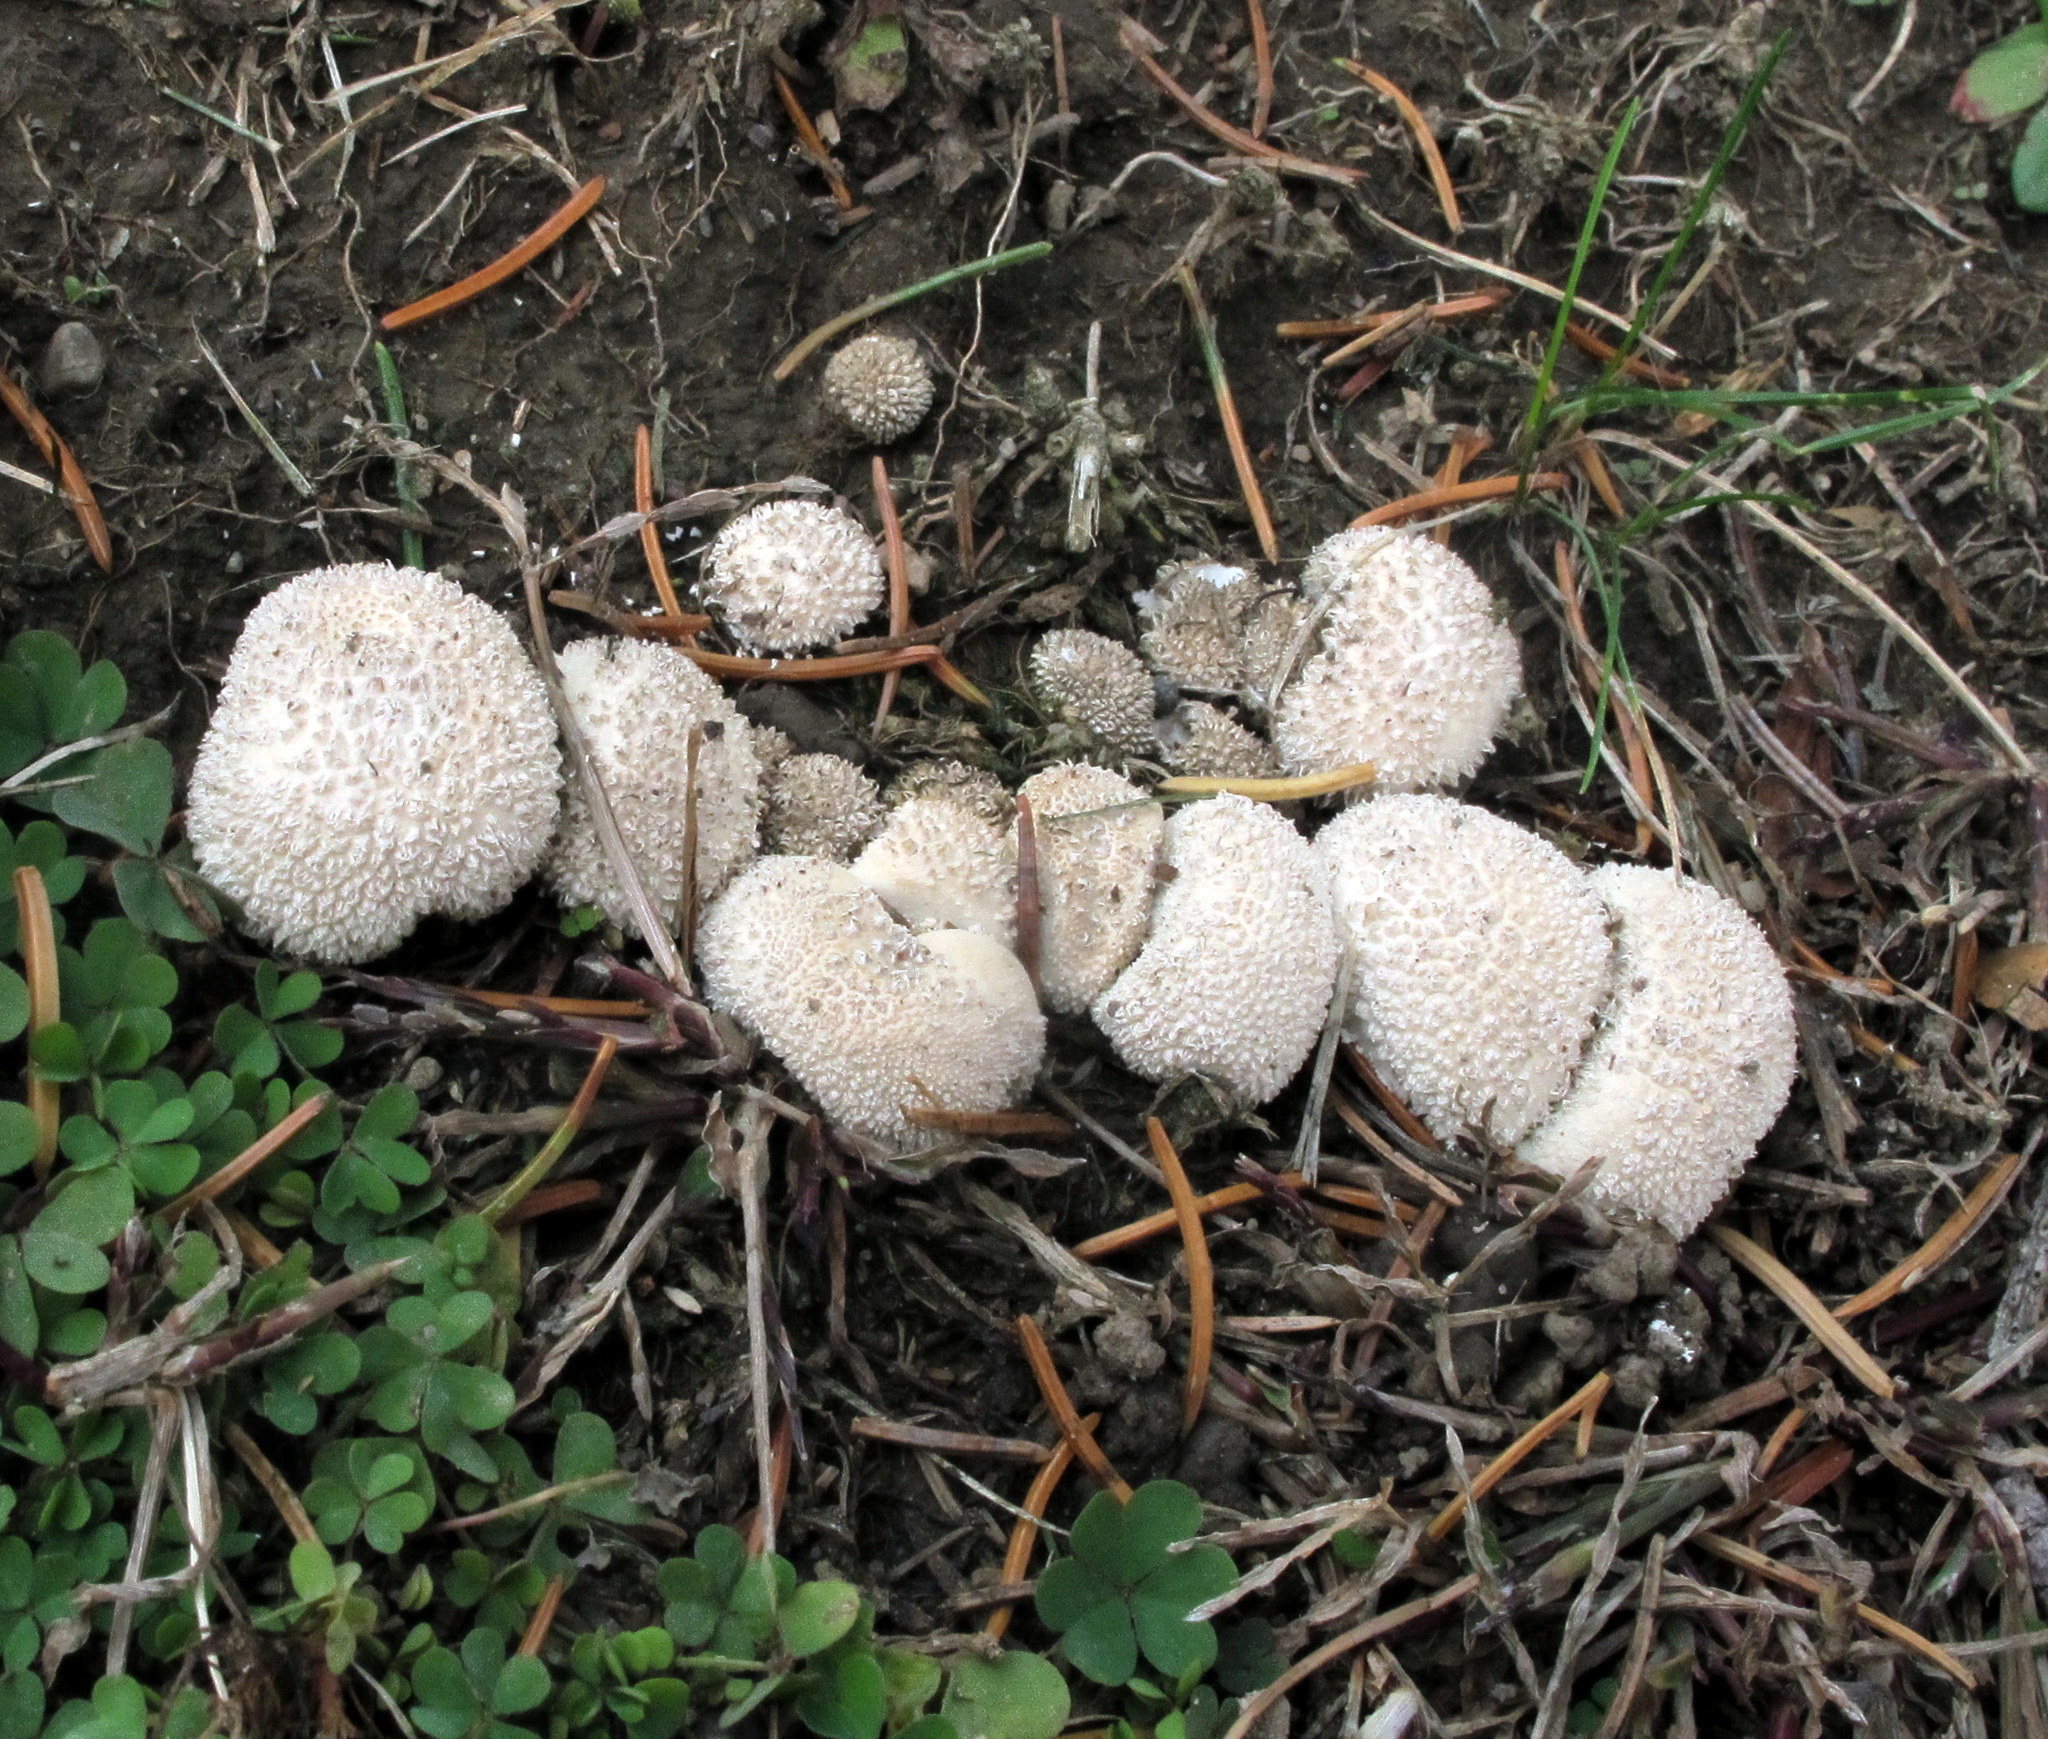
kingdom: Fungi
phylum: Basidiomycota
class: Agaricomycetes
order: Agaricales
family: Agaricaceae
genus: Lycoperdon
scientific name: Lycoperdon marginatum
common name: Peeling puffball
